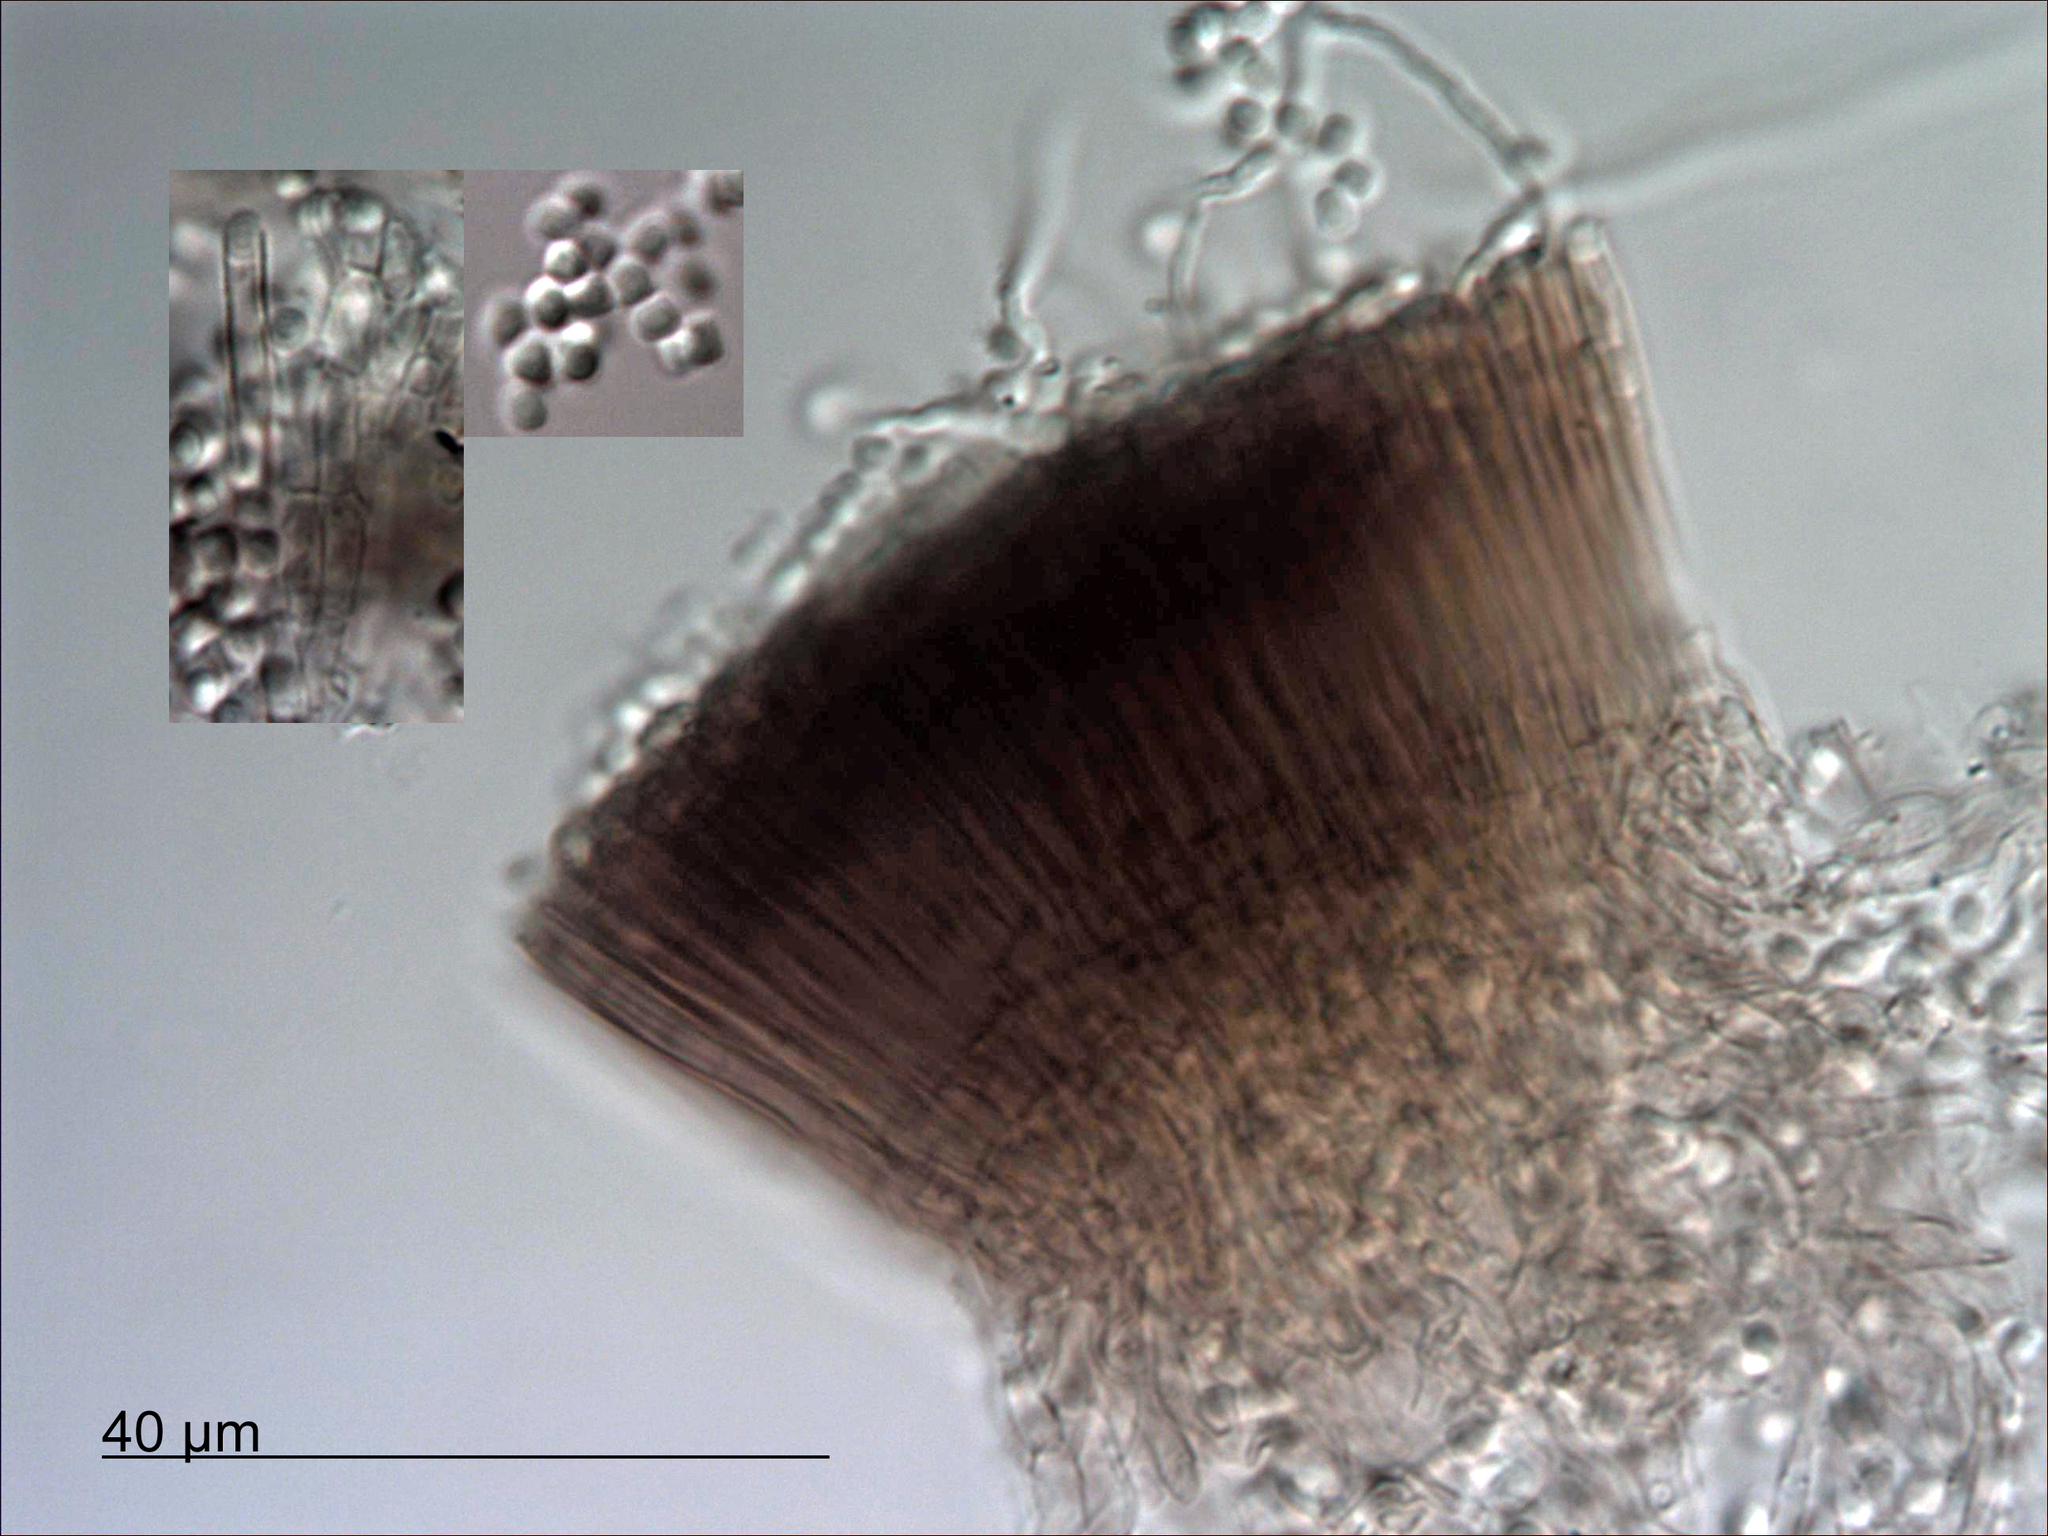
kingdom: Fungi
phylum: Ascomycota
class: Leotiomycetes
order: Helotiales
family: Bloxamiaceae
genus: Bloxamia
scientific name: Bloxamia leucophthalma
